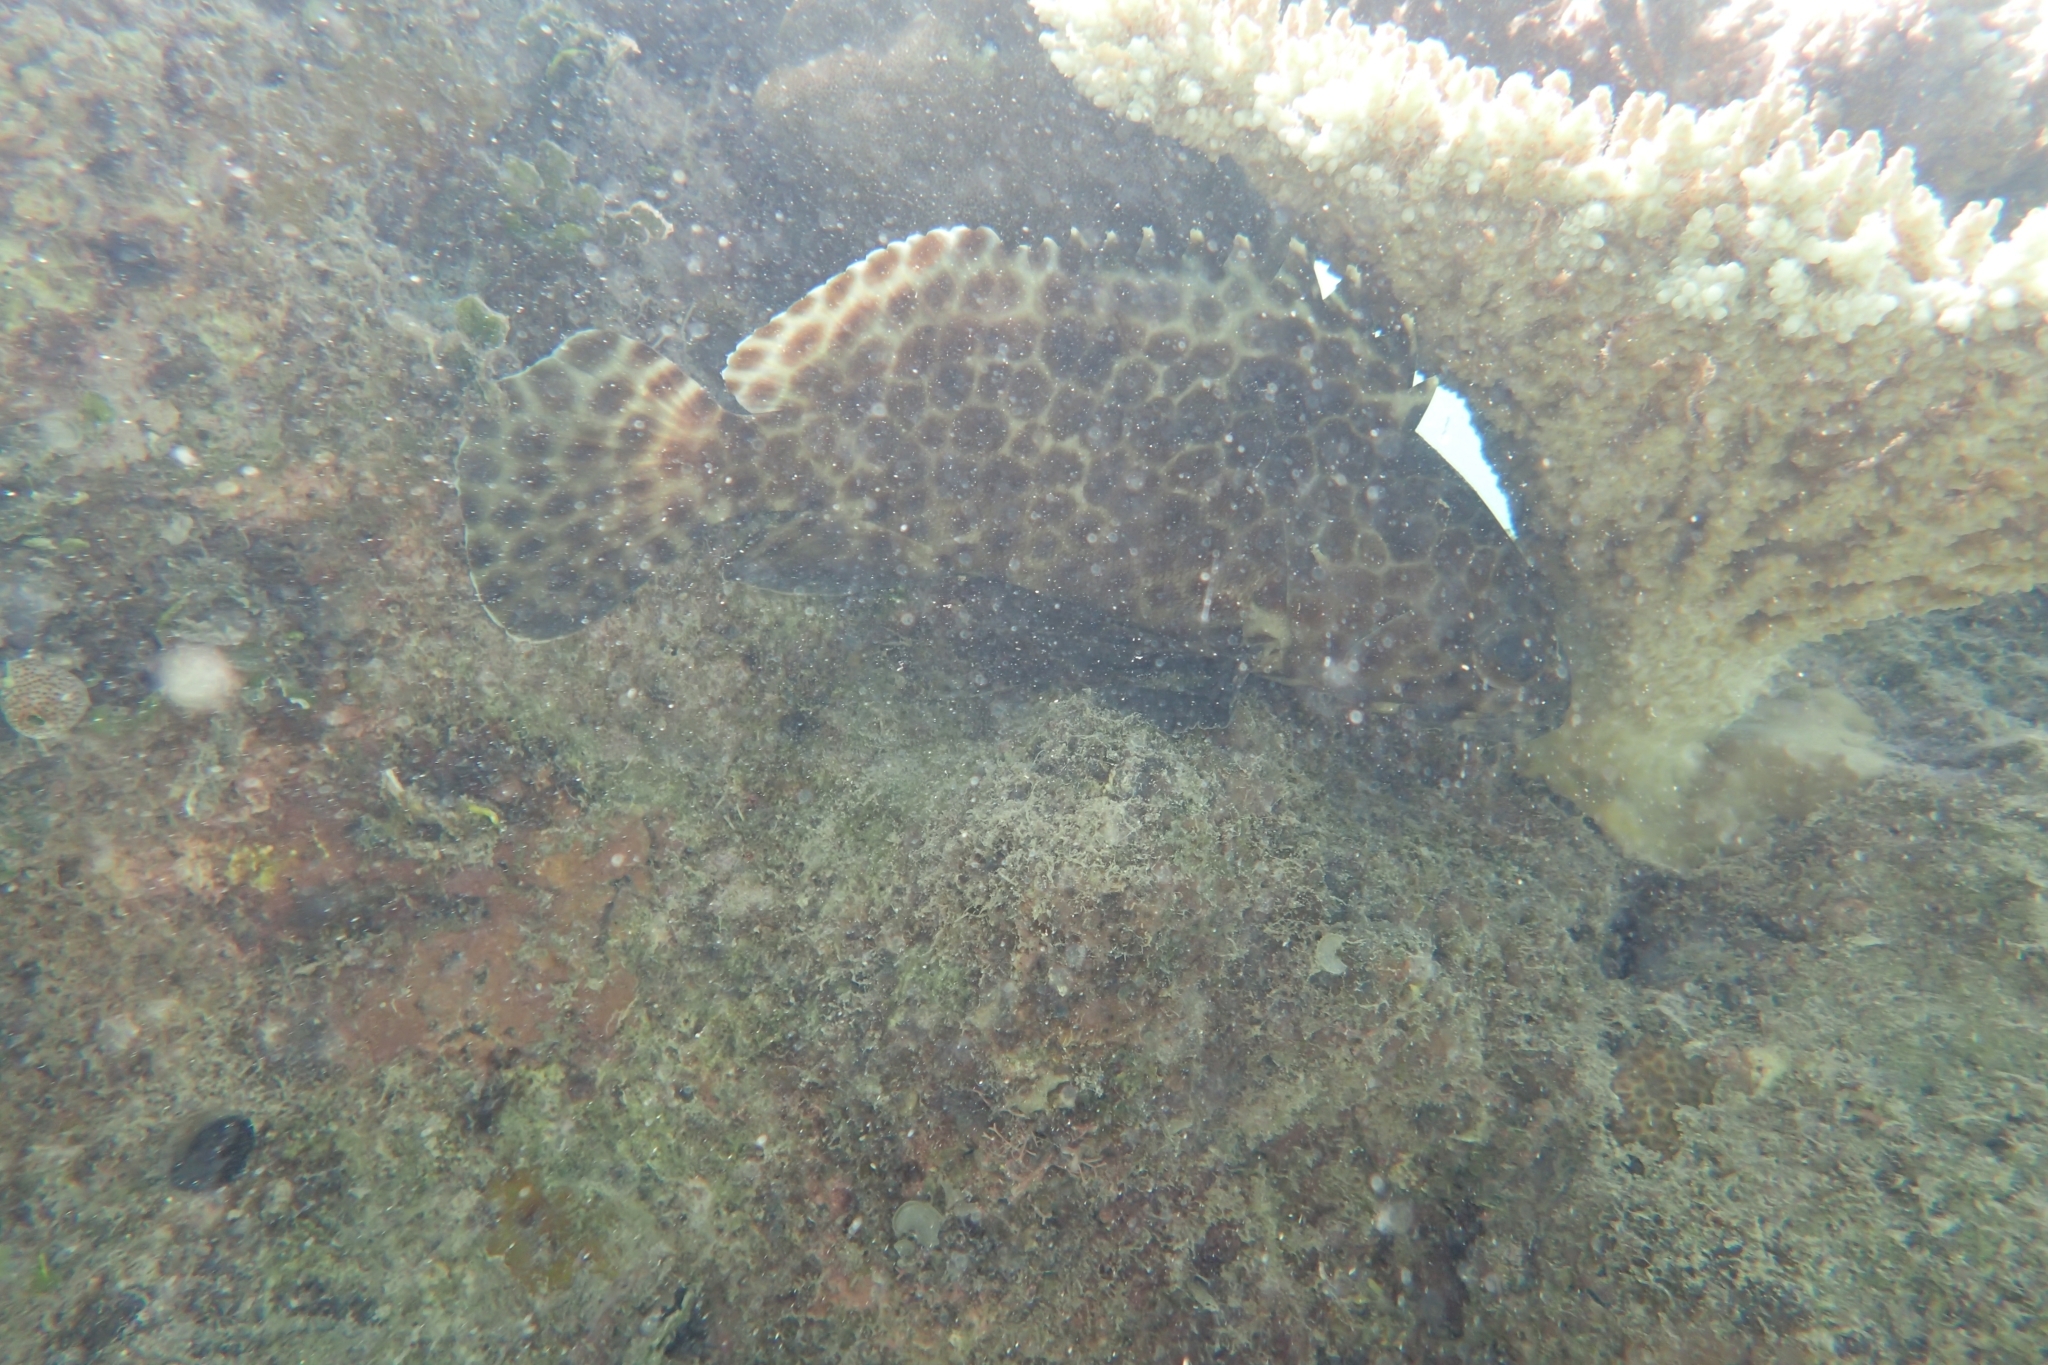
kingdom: Animalia
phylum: Chordata
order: Perciformes
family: Serranidae
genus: Epinephelus
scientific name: Epinephelus quoyanus
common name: Longfin grouper
